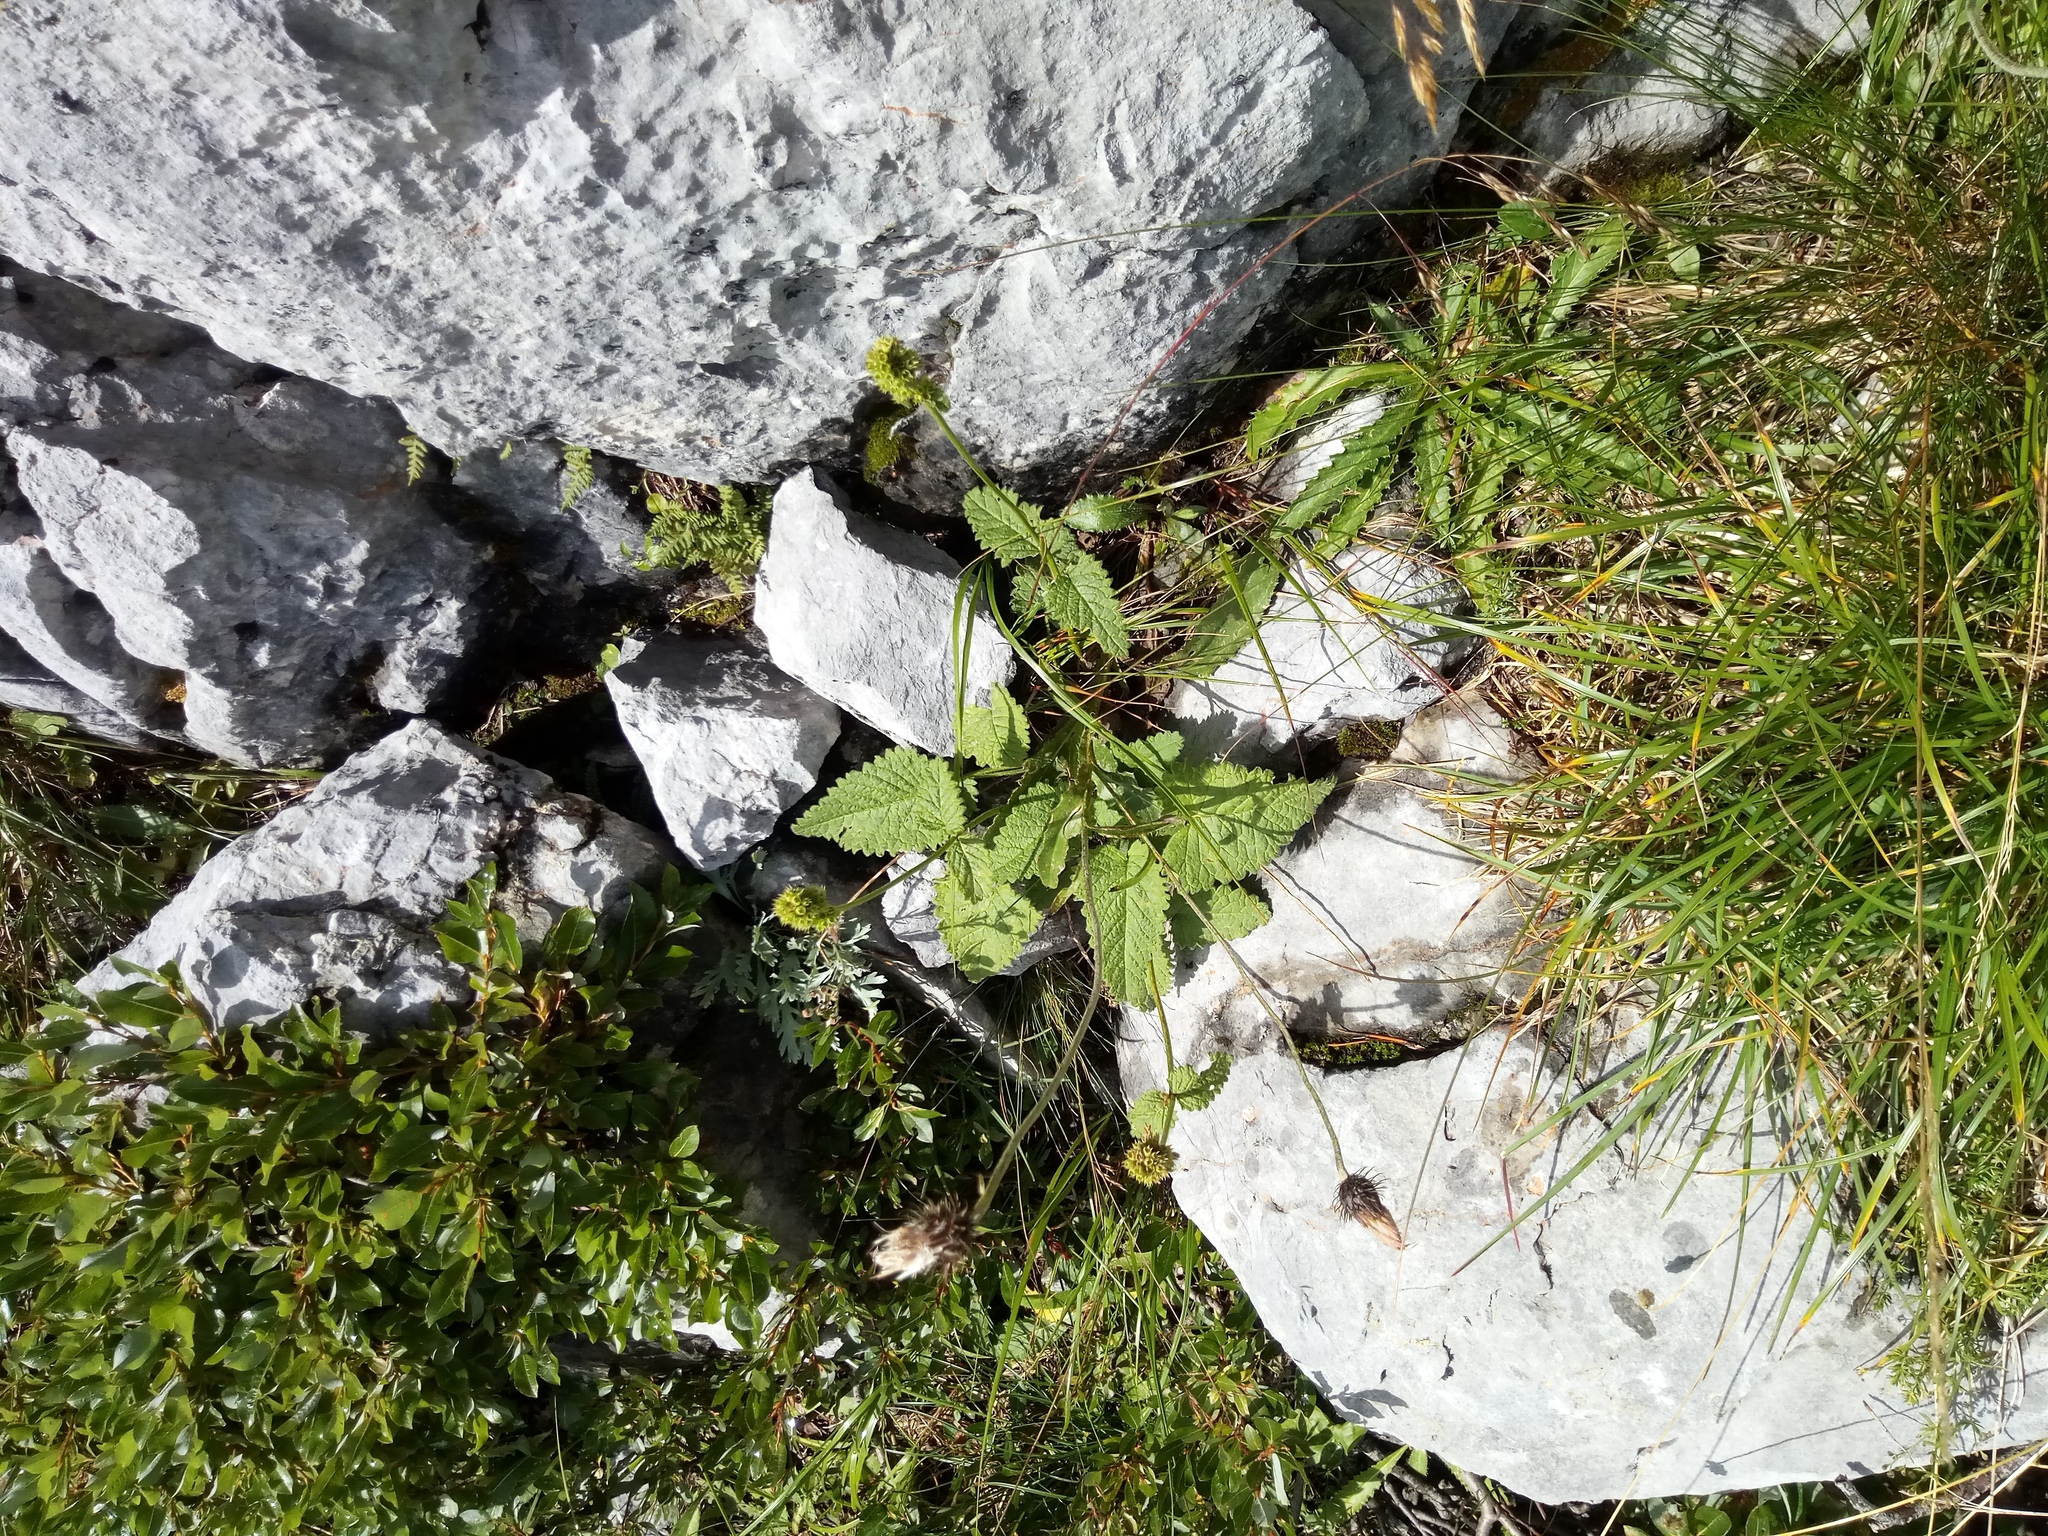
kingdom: Plantae
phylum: Tracheophyta
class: Magnoliopsida
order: Lamiales
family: Lamiaceae
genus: Betonica
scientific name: Betonica alopecuros
